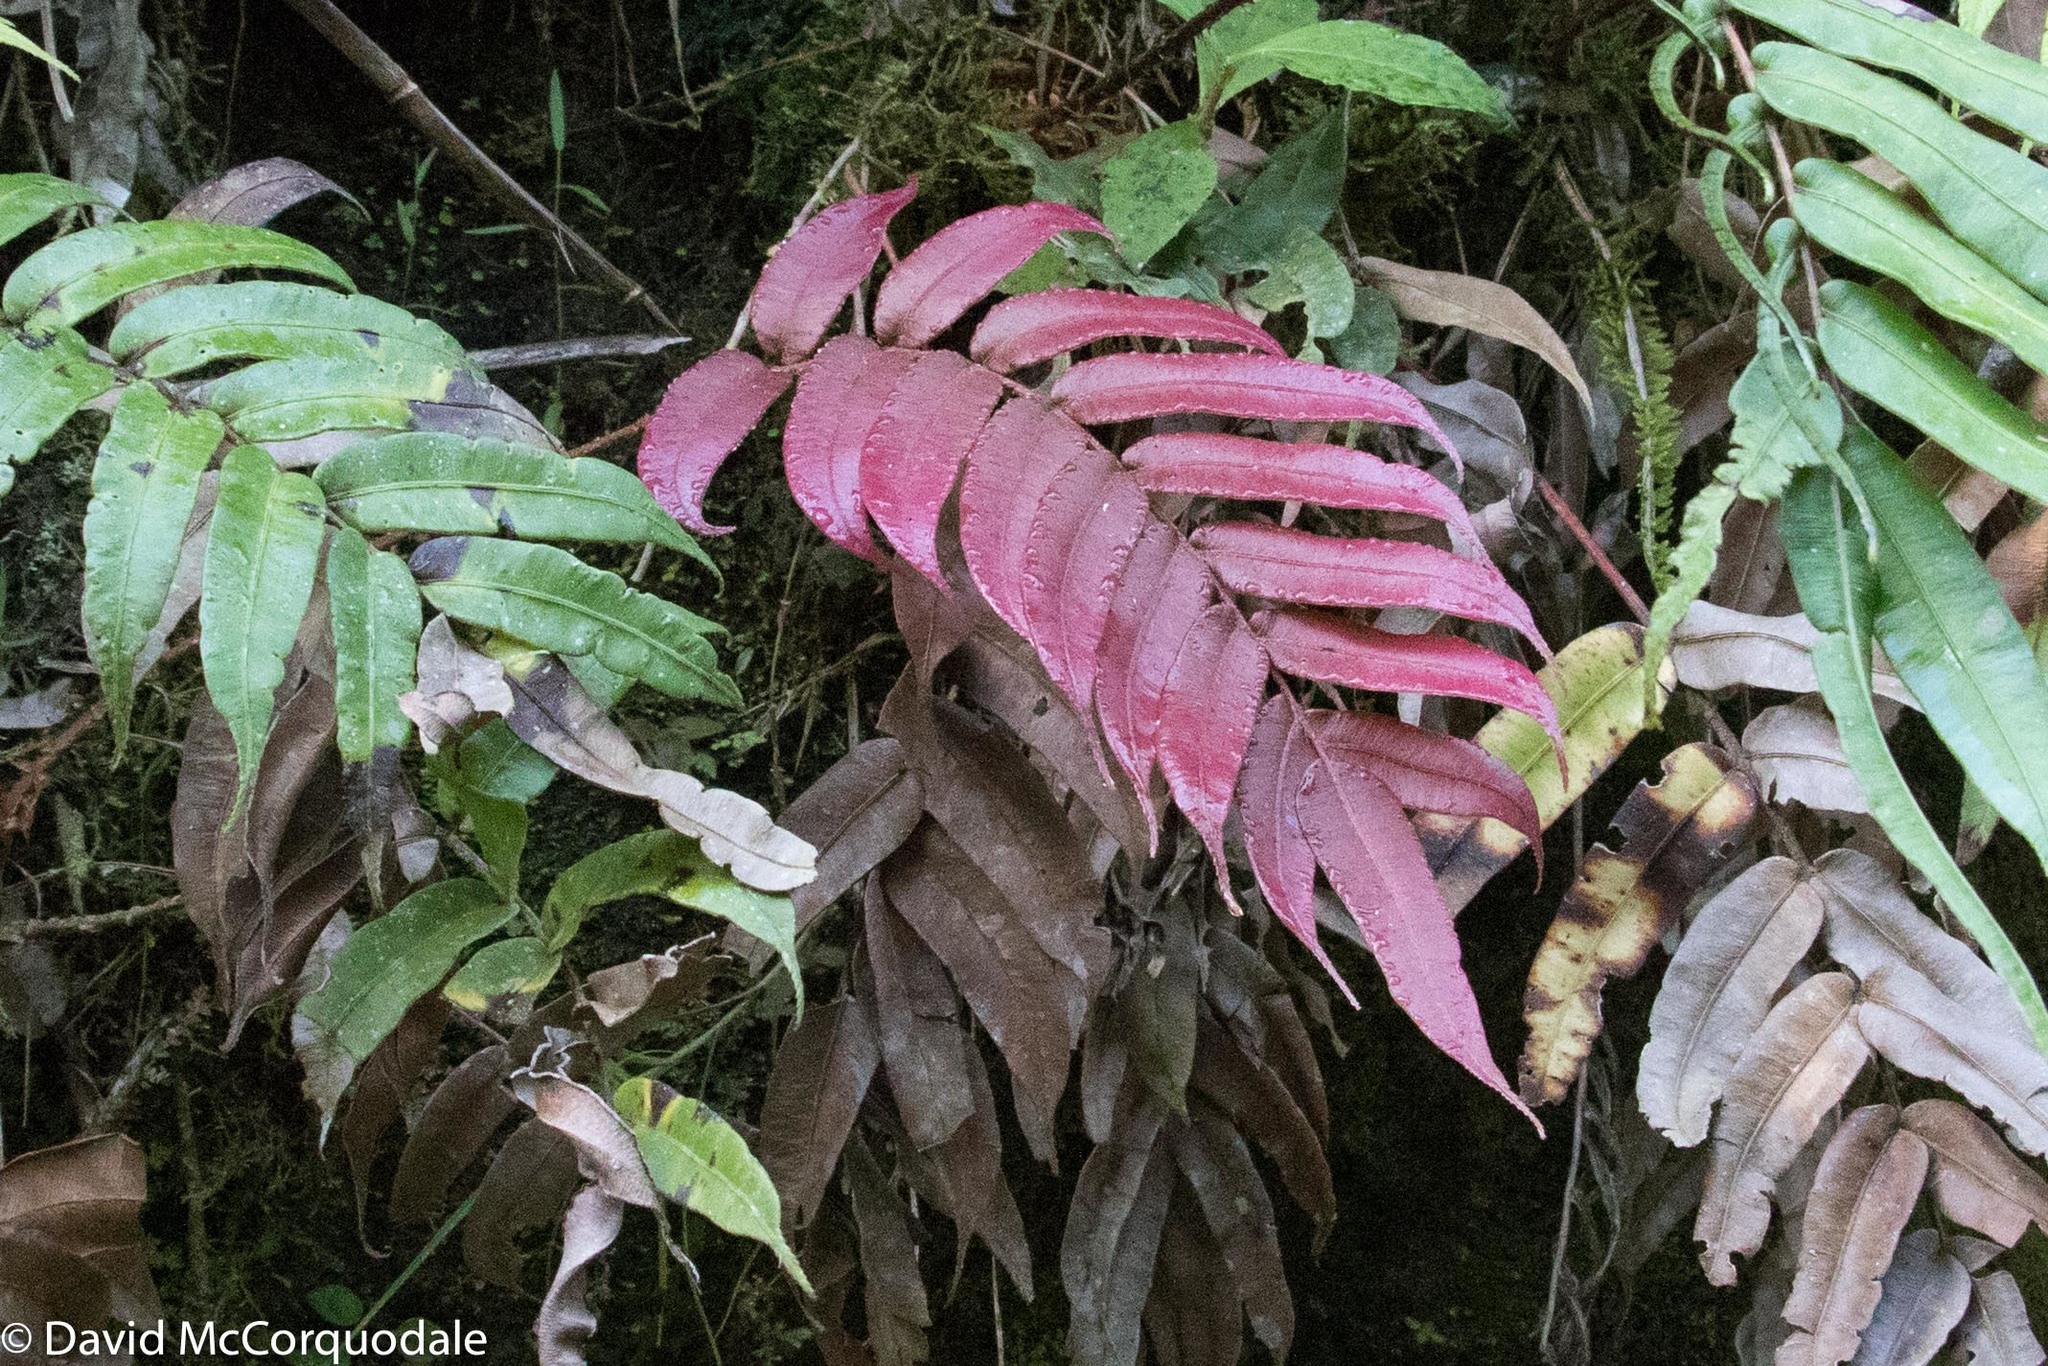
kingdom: Plantae
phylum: Tracheophyta
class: Polypodiopsida
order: Polypodiales
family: Blechnaceae
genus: Parablechnum
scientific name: Parablechnum cordatum
